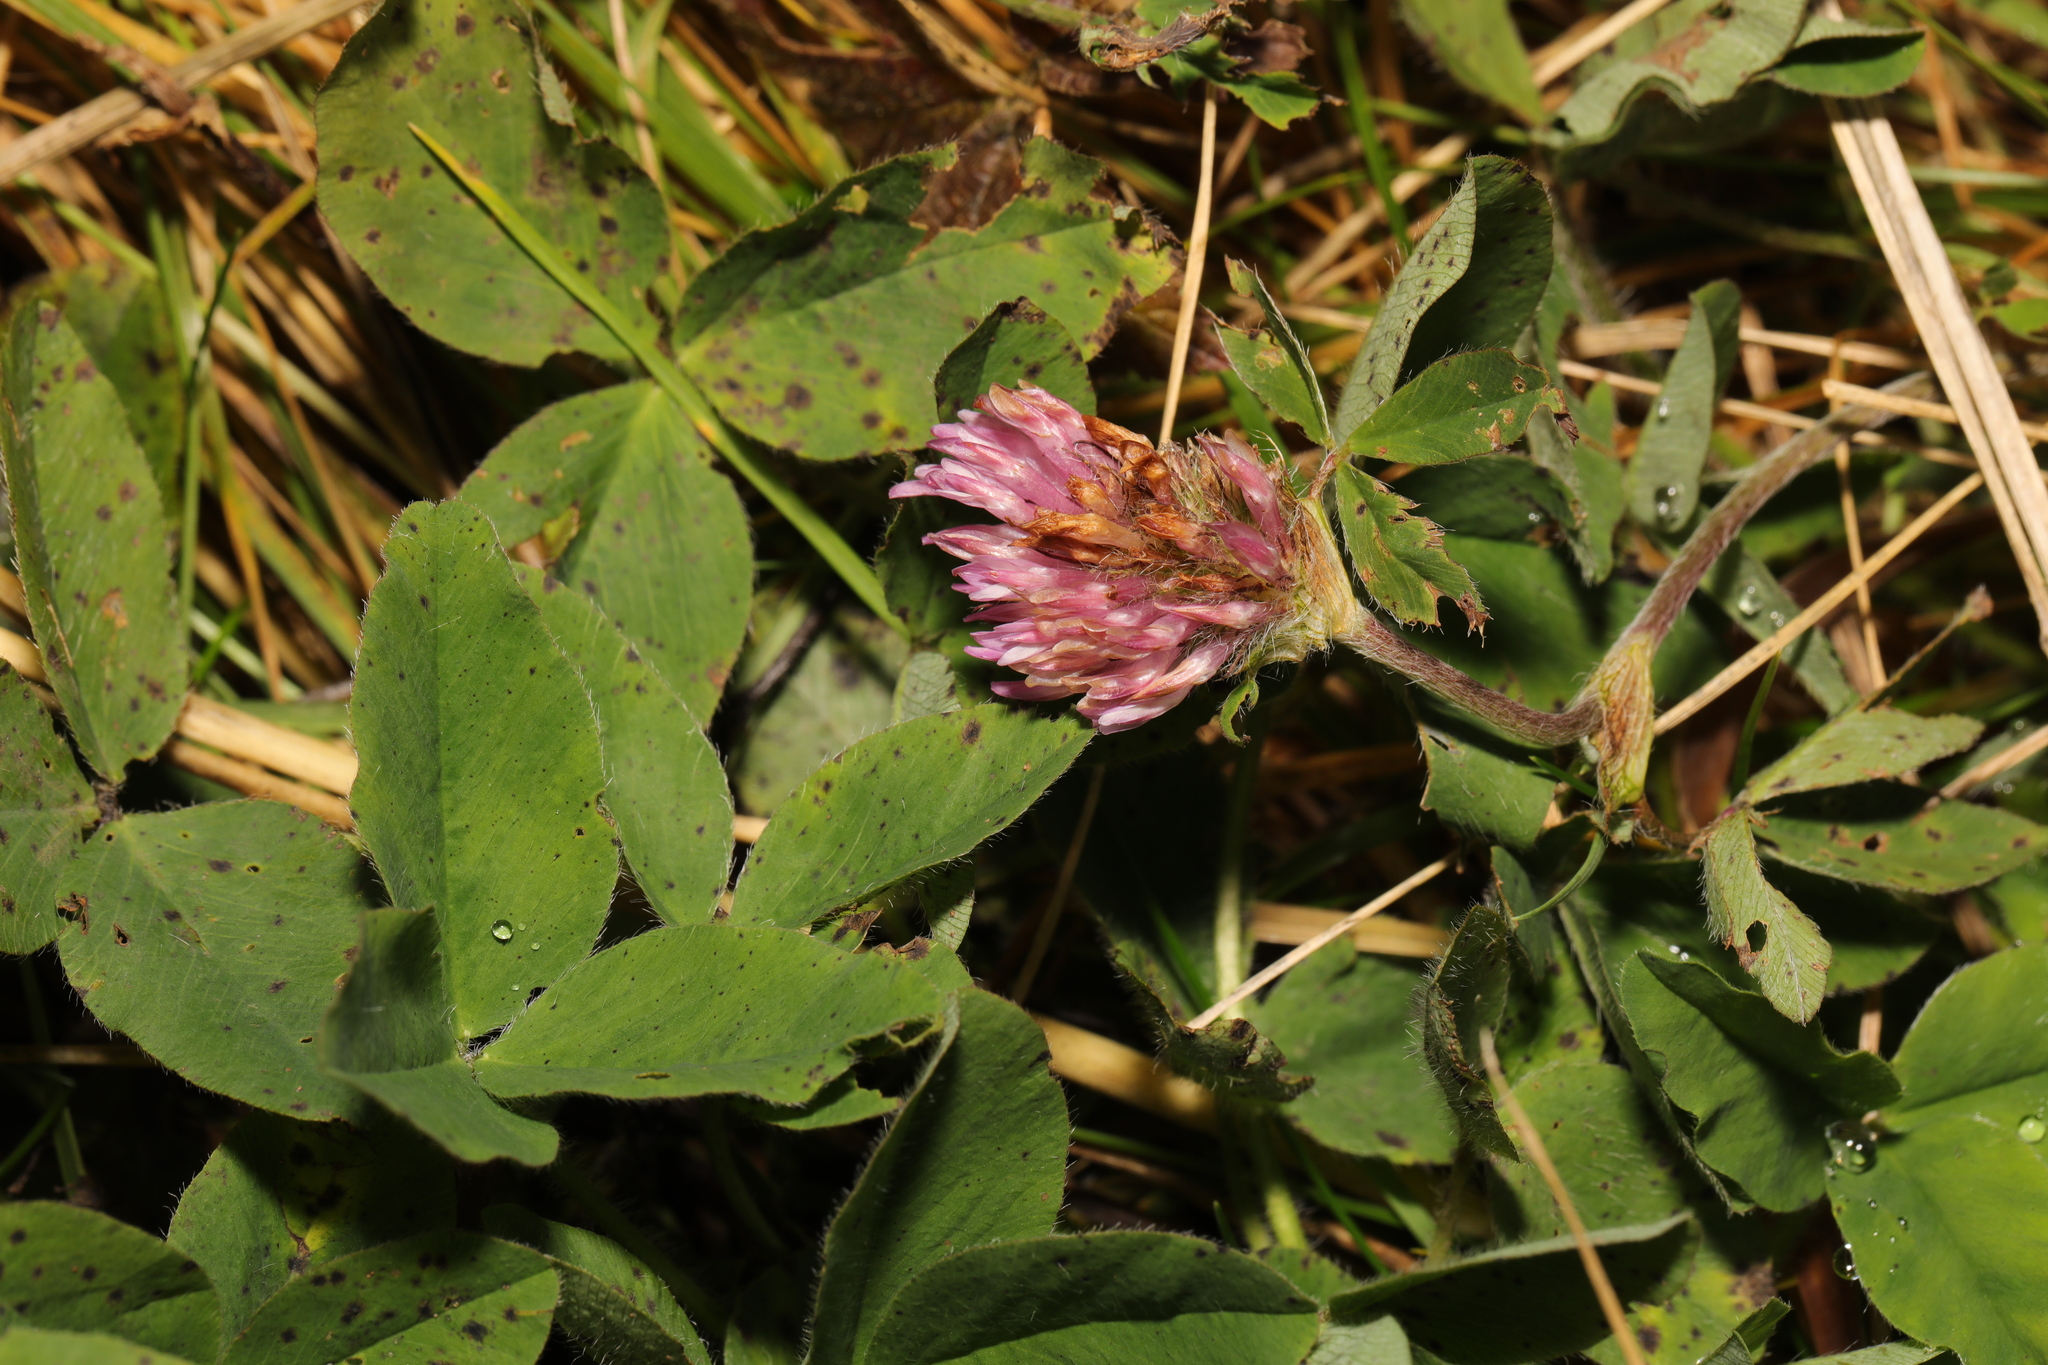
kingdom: Plantae
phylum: Tracheophyta
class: Magnoliopsida
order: Fabales
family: Fabaceae
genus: Trifolium
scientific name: Trifolium pratense
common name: Red clover
